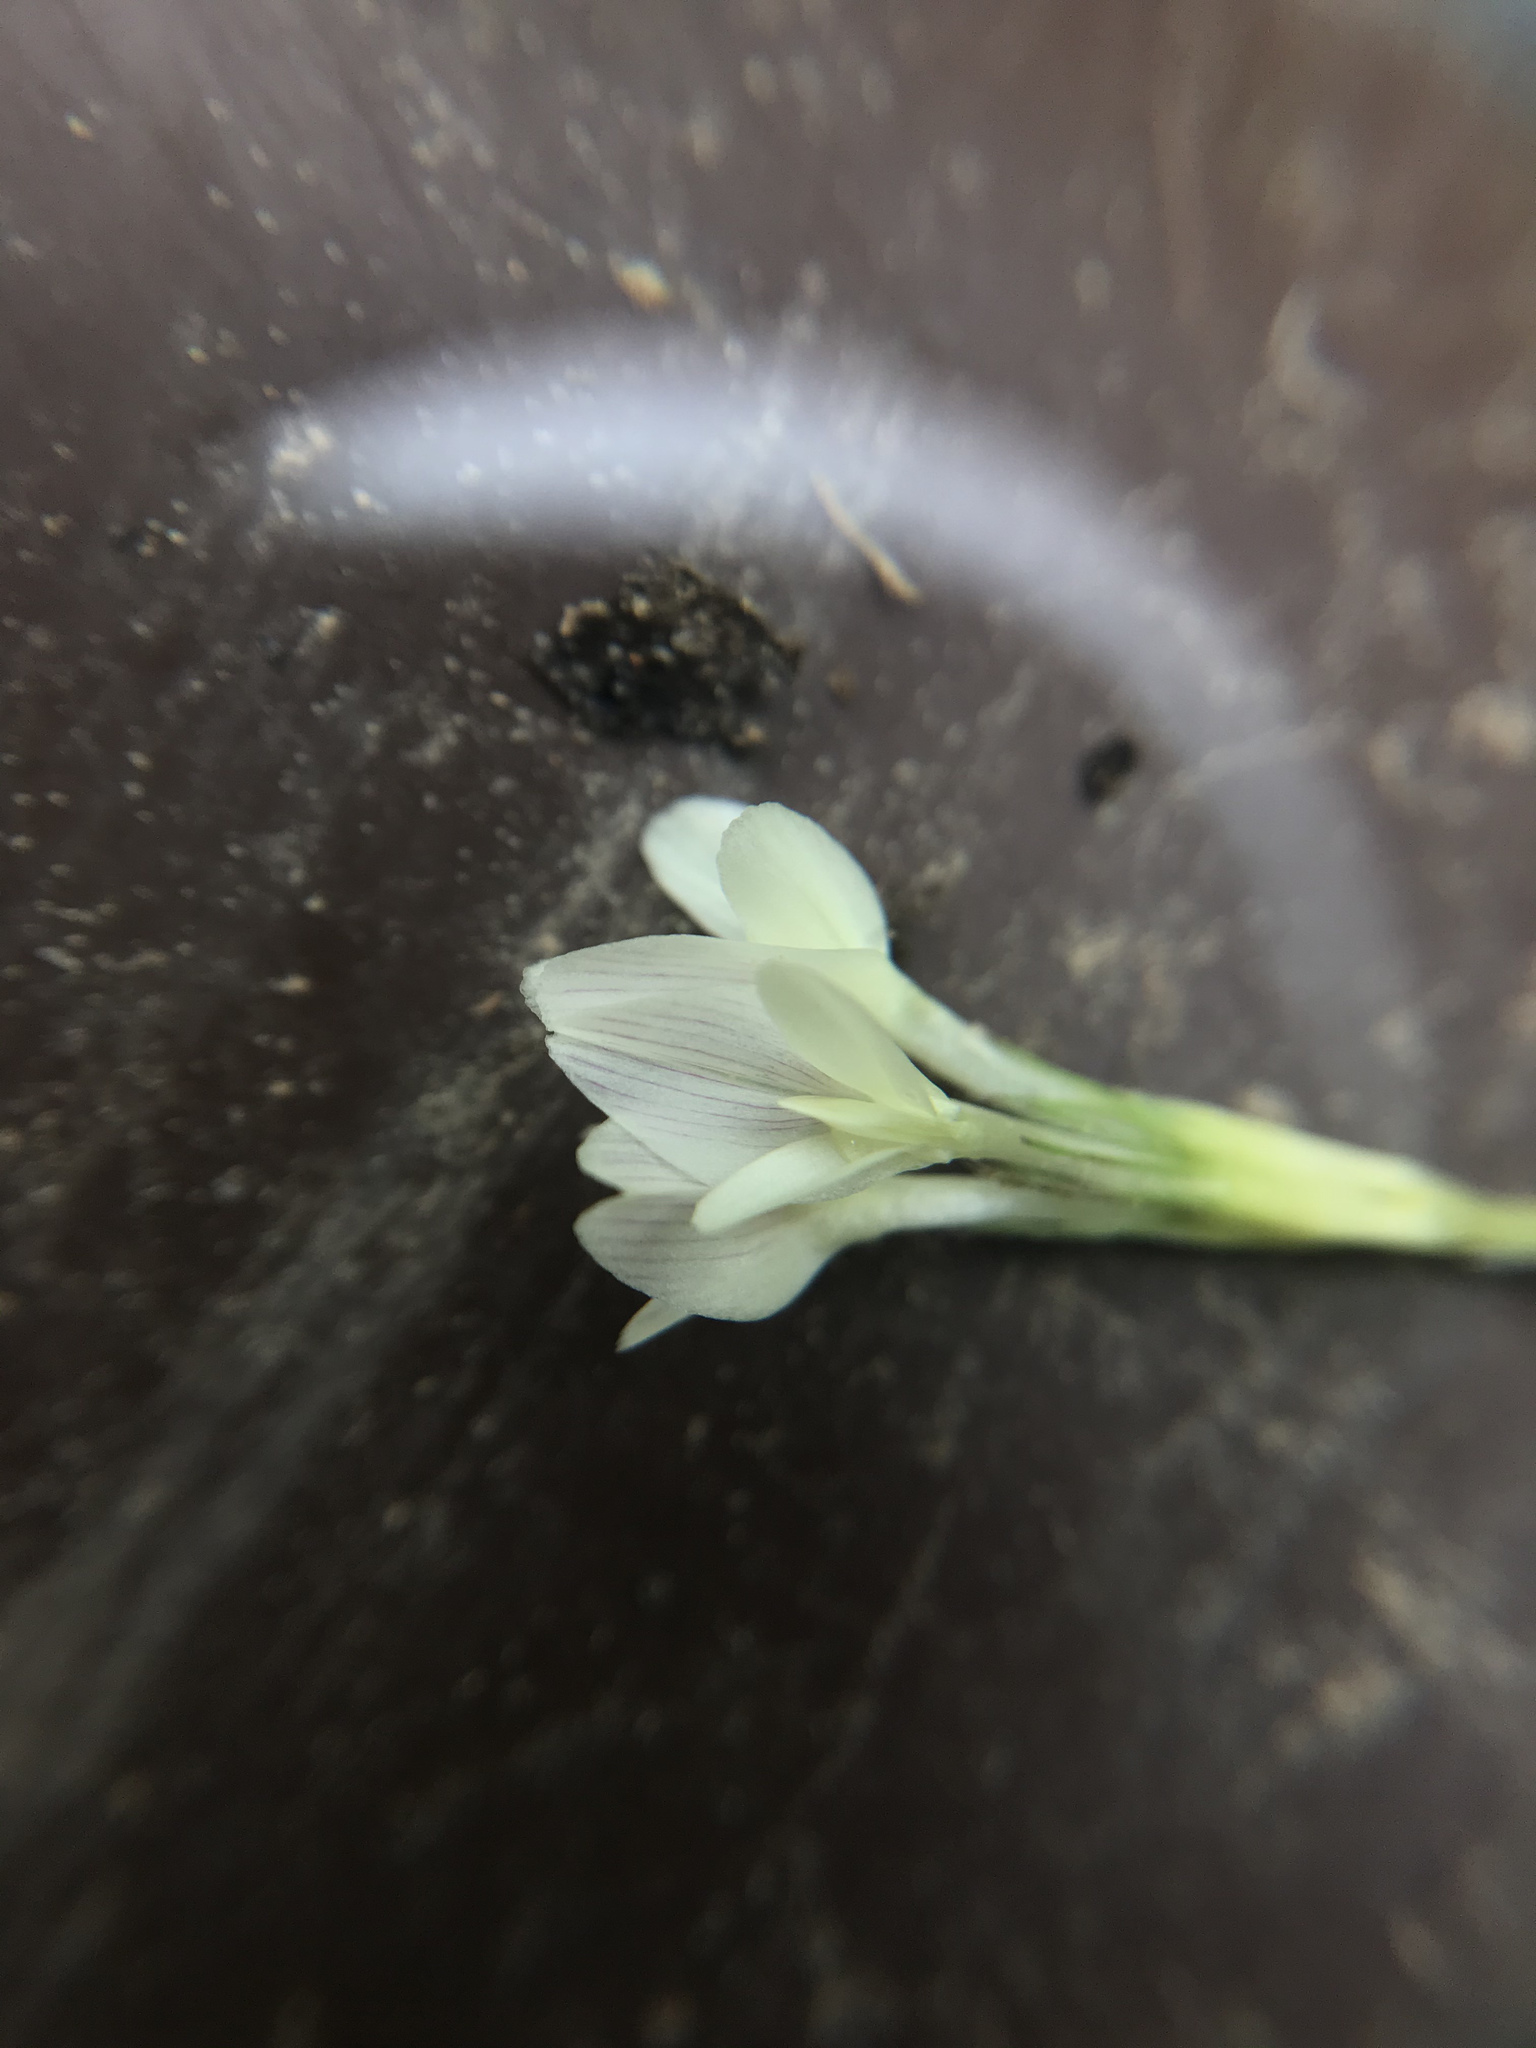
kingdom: Plantae
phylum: Tracheophyta
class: Magnoliopsida
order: Fabales
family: Fabaceae
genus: Trifolium
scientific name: Trifolium subterraneum
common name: Subterranean clover
